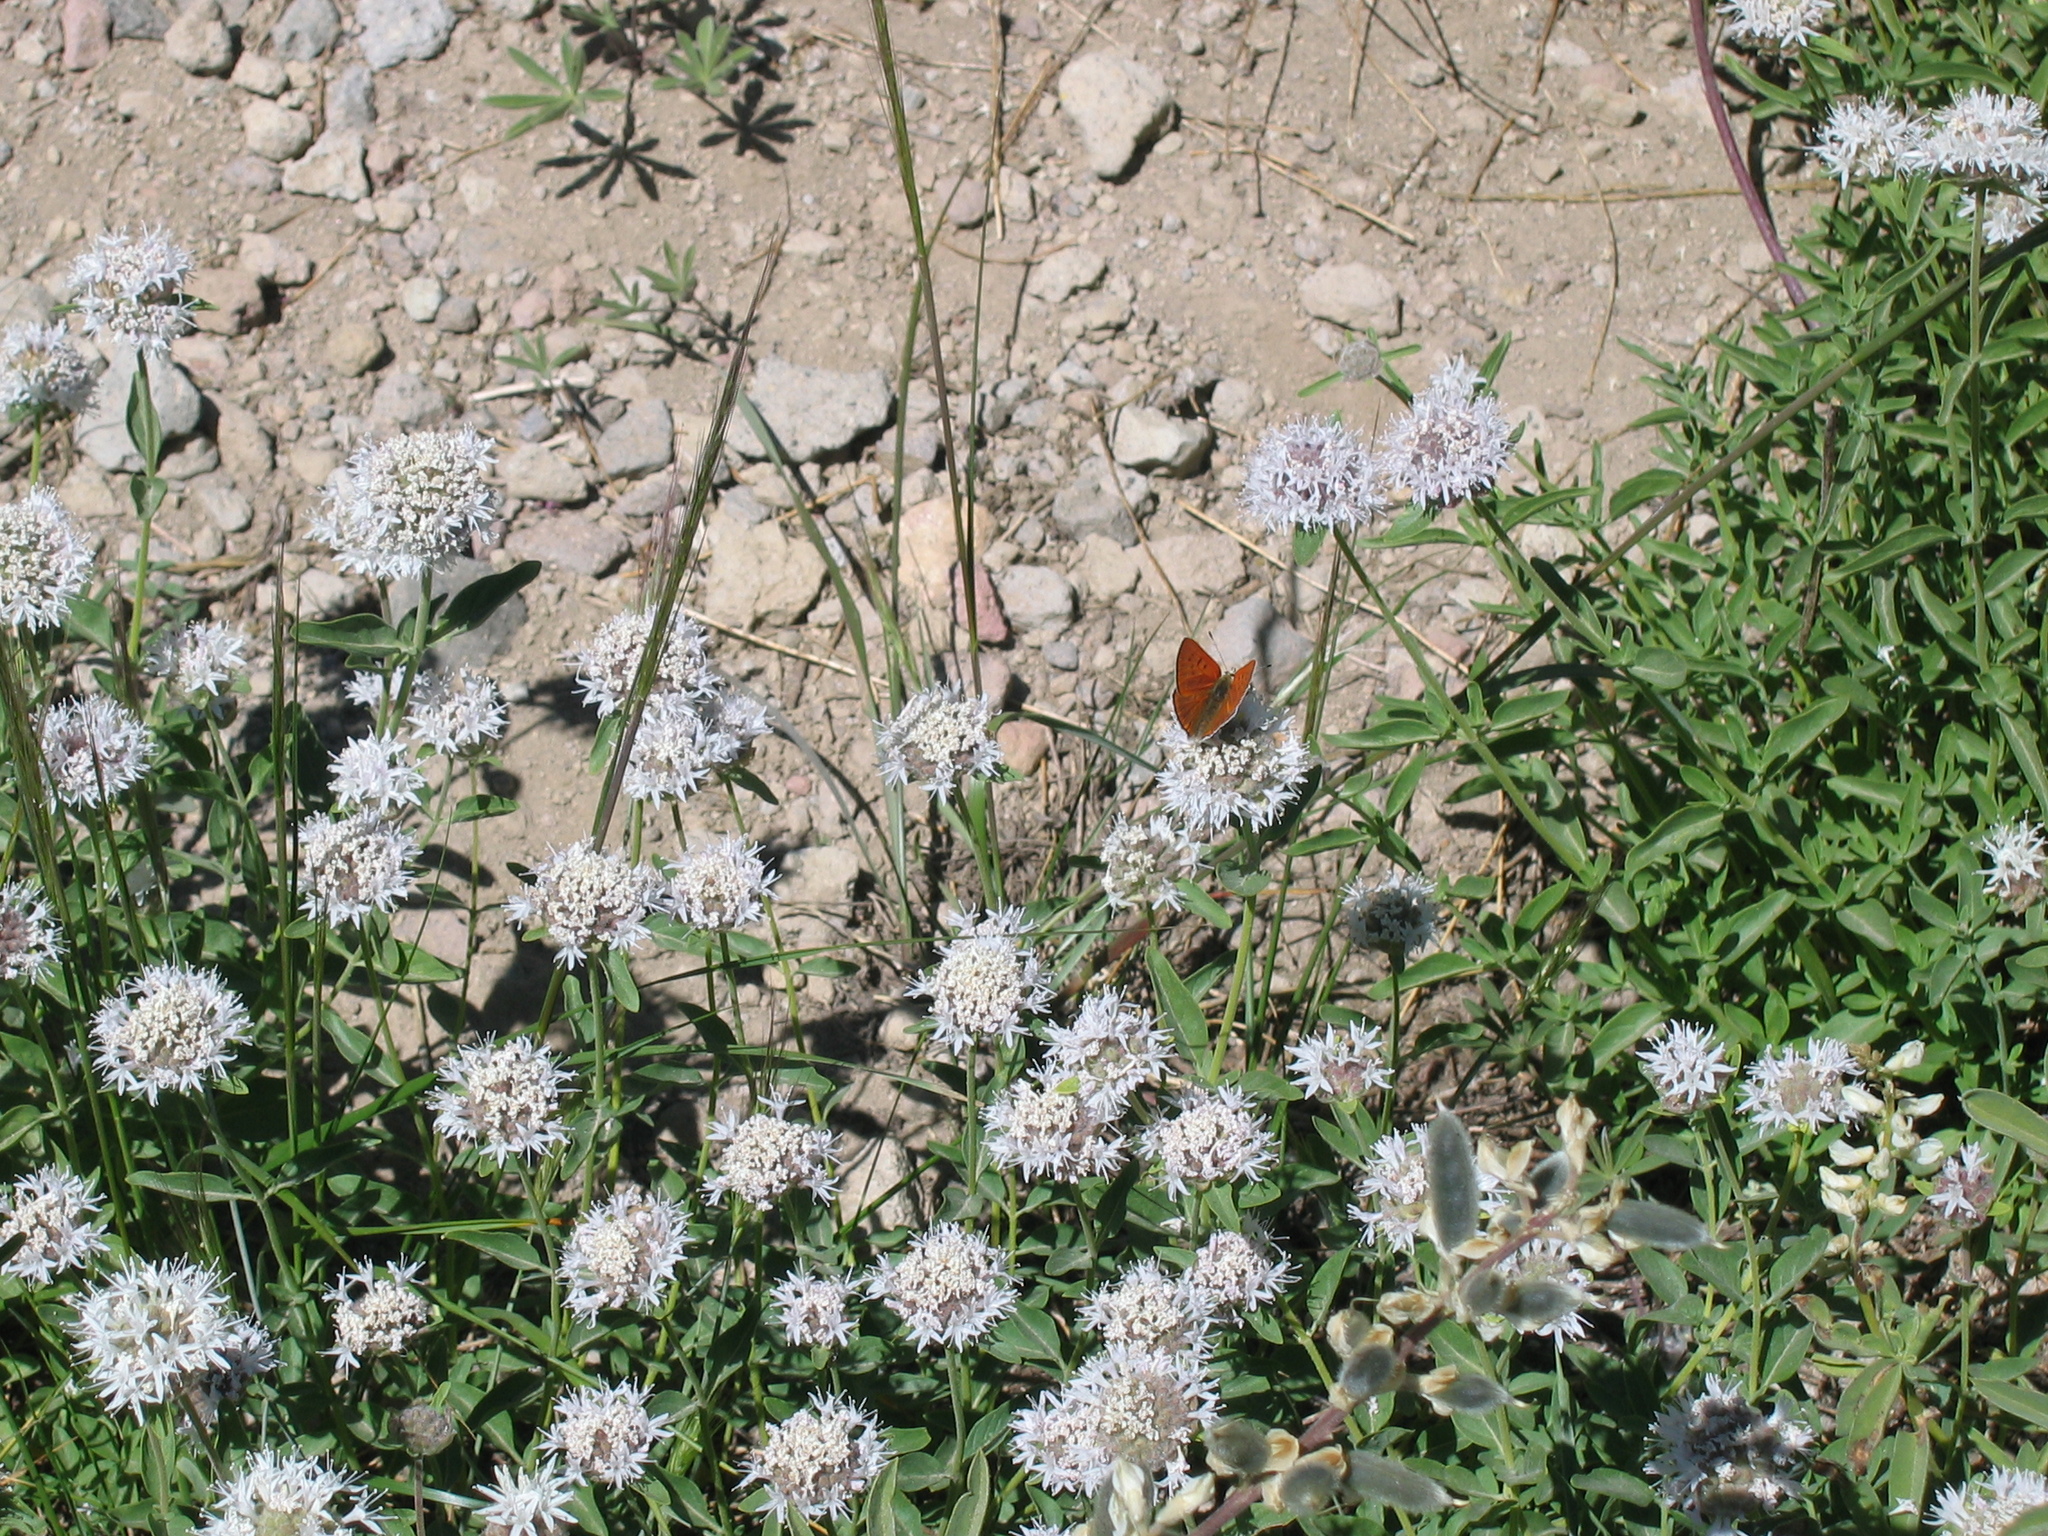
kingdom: Plantae
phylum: Tracheophyta
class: Magnoliopsida
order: Lamiales
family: Lamiaceae
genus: Monardella
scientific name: Monardella odoratissima
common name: Pacific monardella
